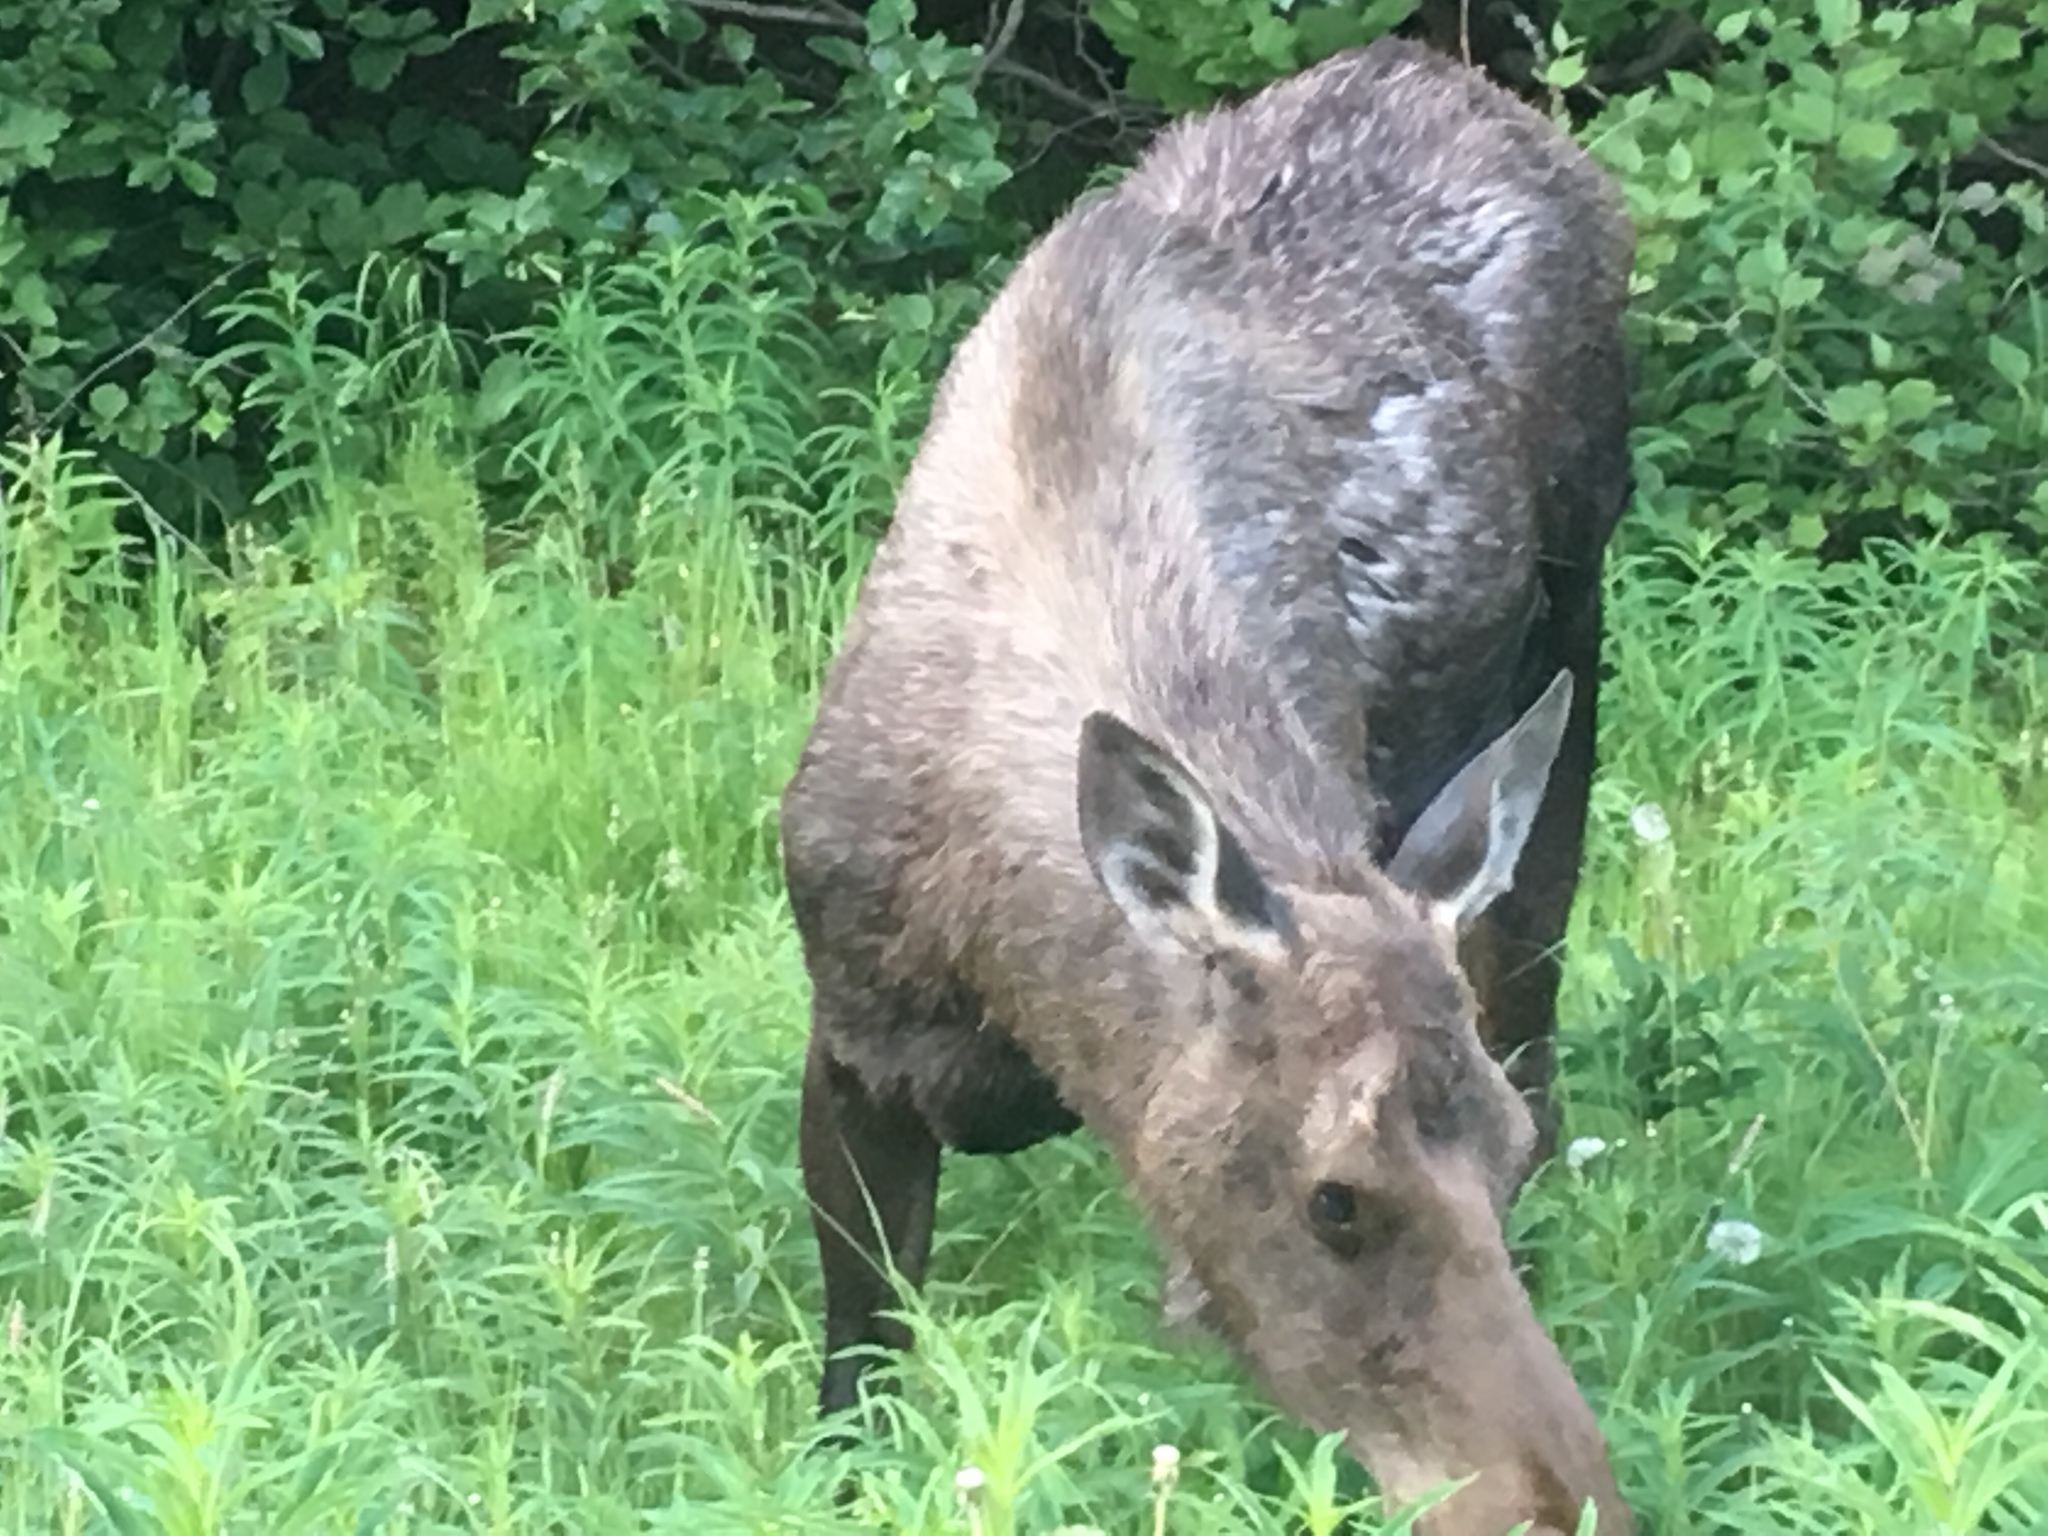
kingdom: Animalia
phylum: Chordata
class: Mammalia
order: Artiodactyla
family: Cervidae
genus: Alces
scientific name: Alces alces
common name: Moose
